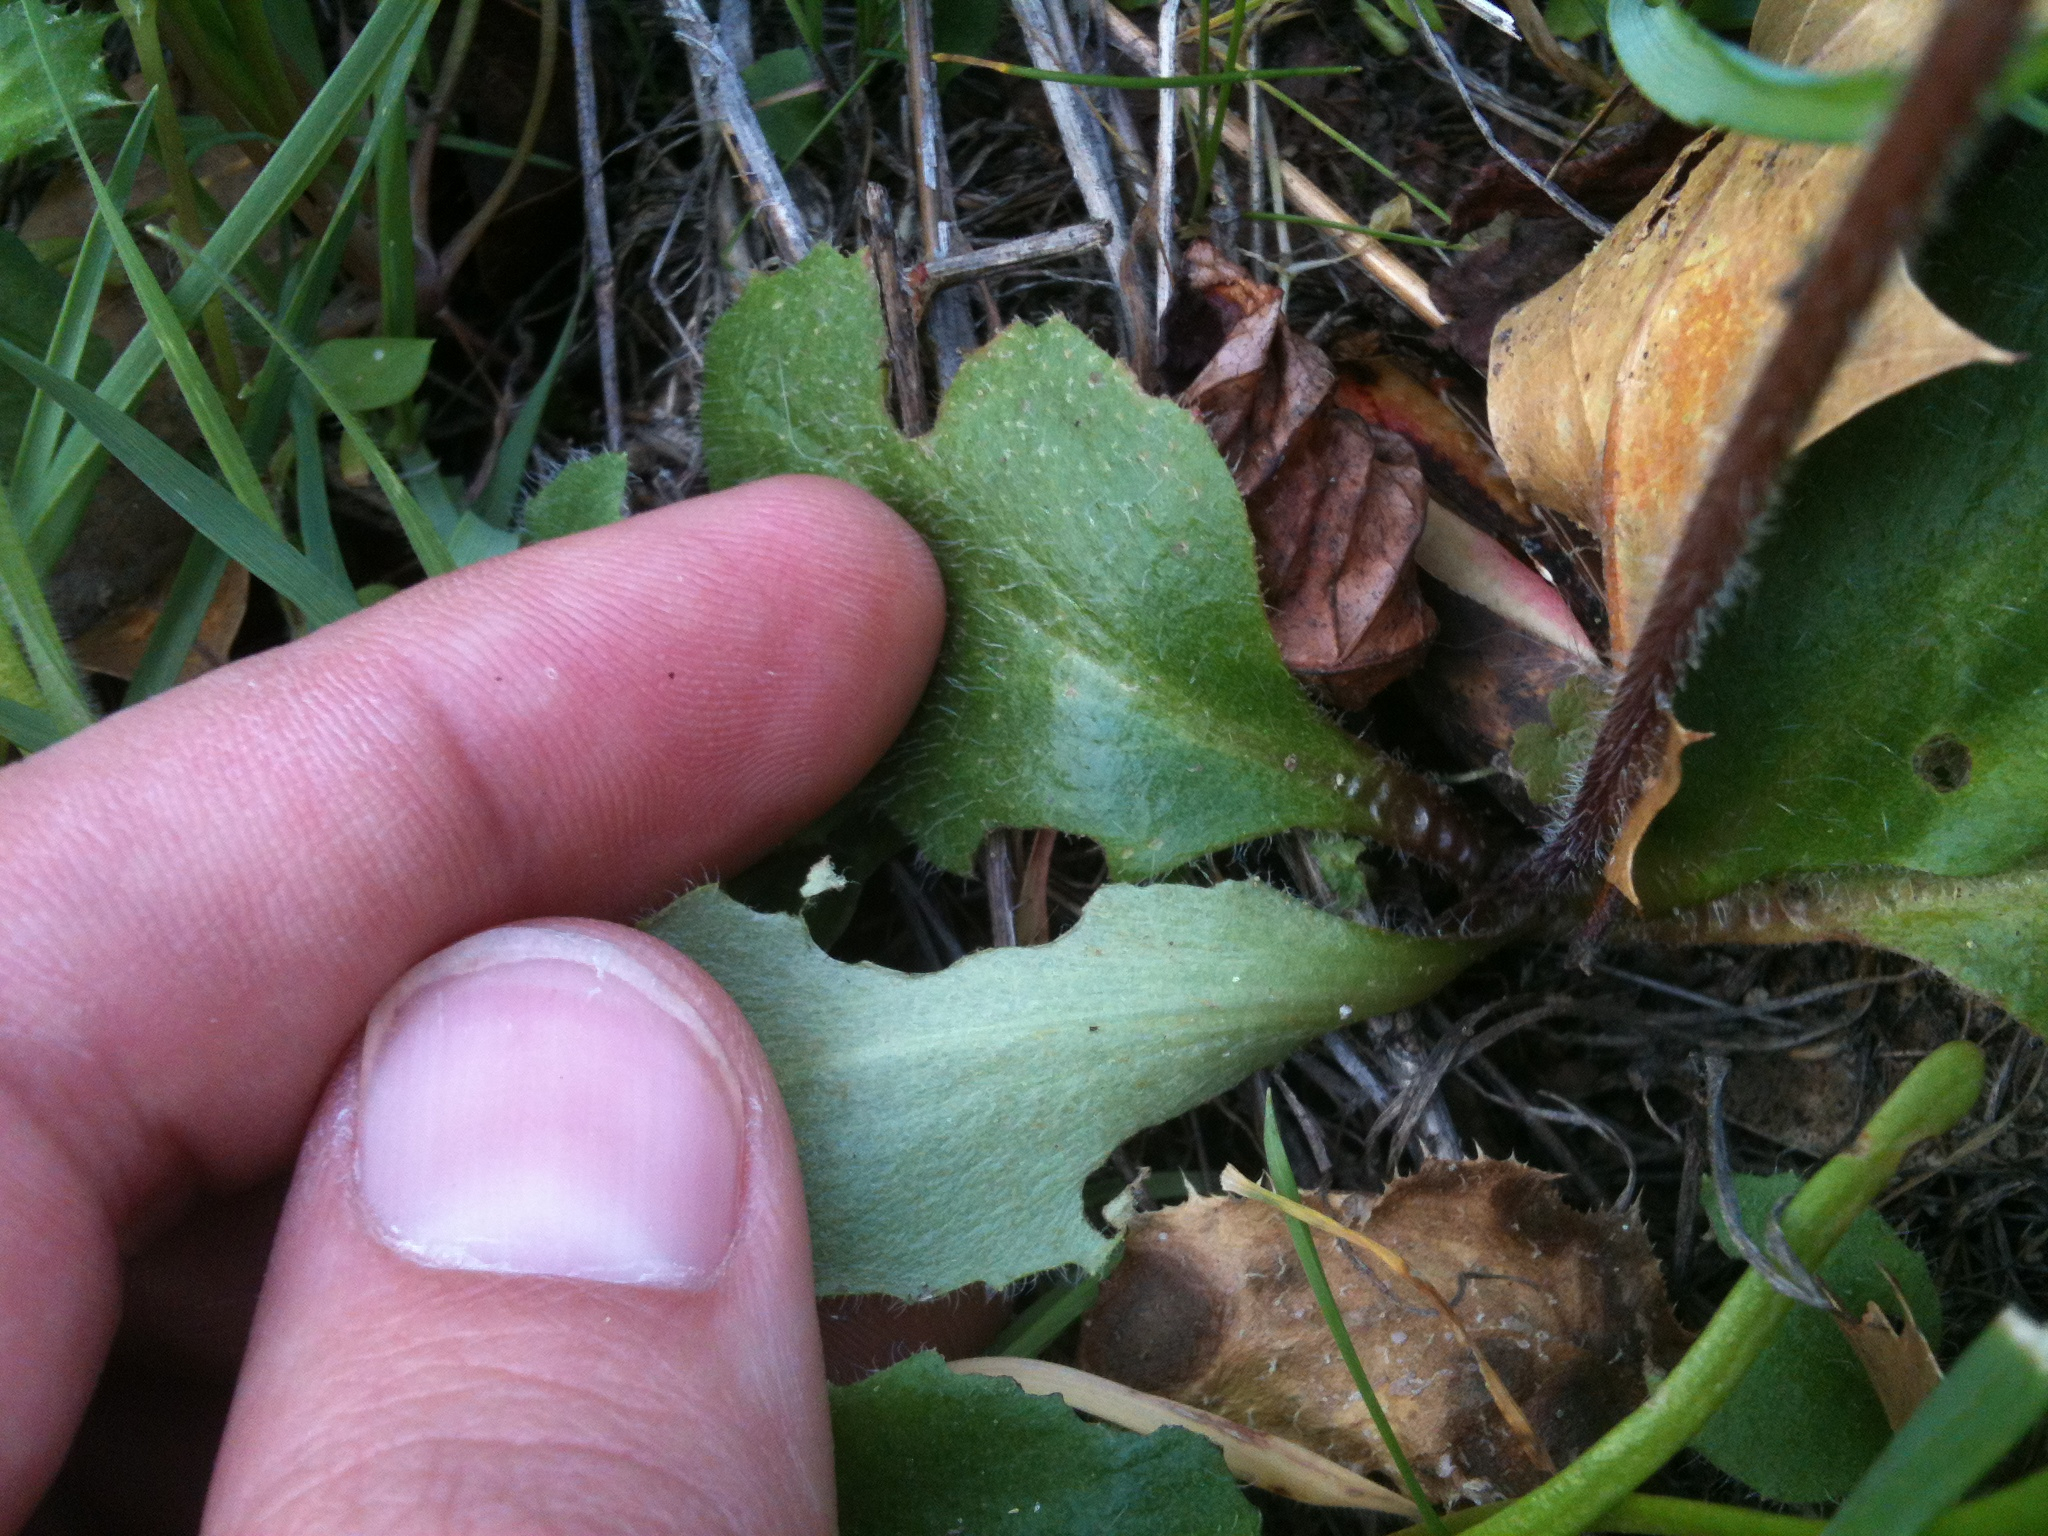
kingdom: Plantae
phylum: Tracheophyta
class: Magnoliopsida
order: Saxifragales
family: Saxifragaceae
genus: Micranthes
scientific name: Micranthes californica
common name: California saxifrage
